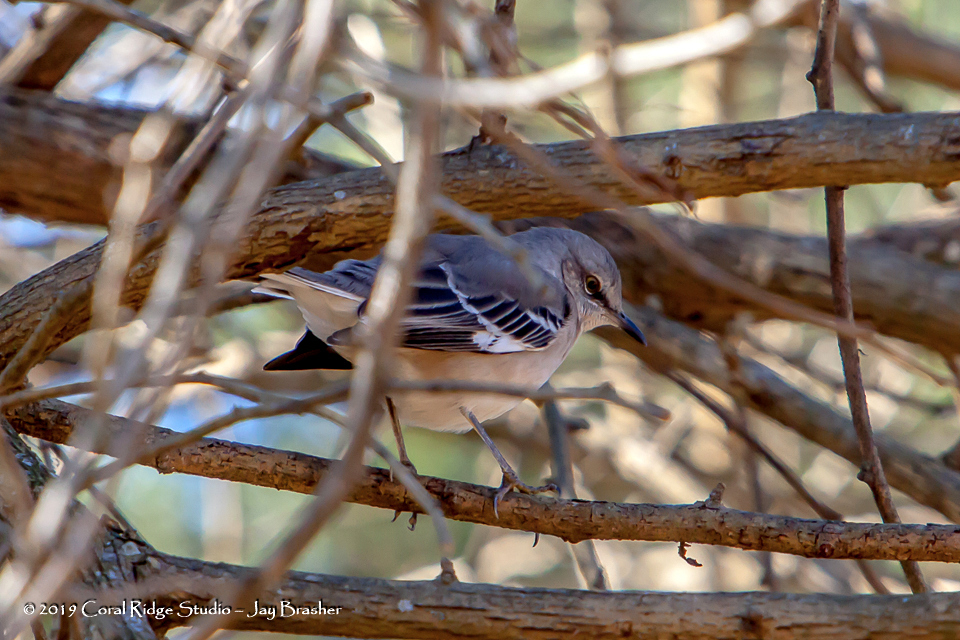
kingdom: Animalia
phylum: Chordata
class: Aves
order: Passeriformes
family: Mimidae
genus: Mimus
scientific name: Mimus polyglottos
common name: Northern mockingbird
